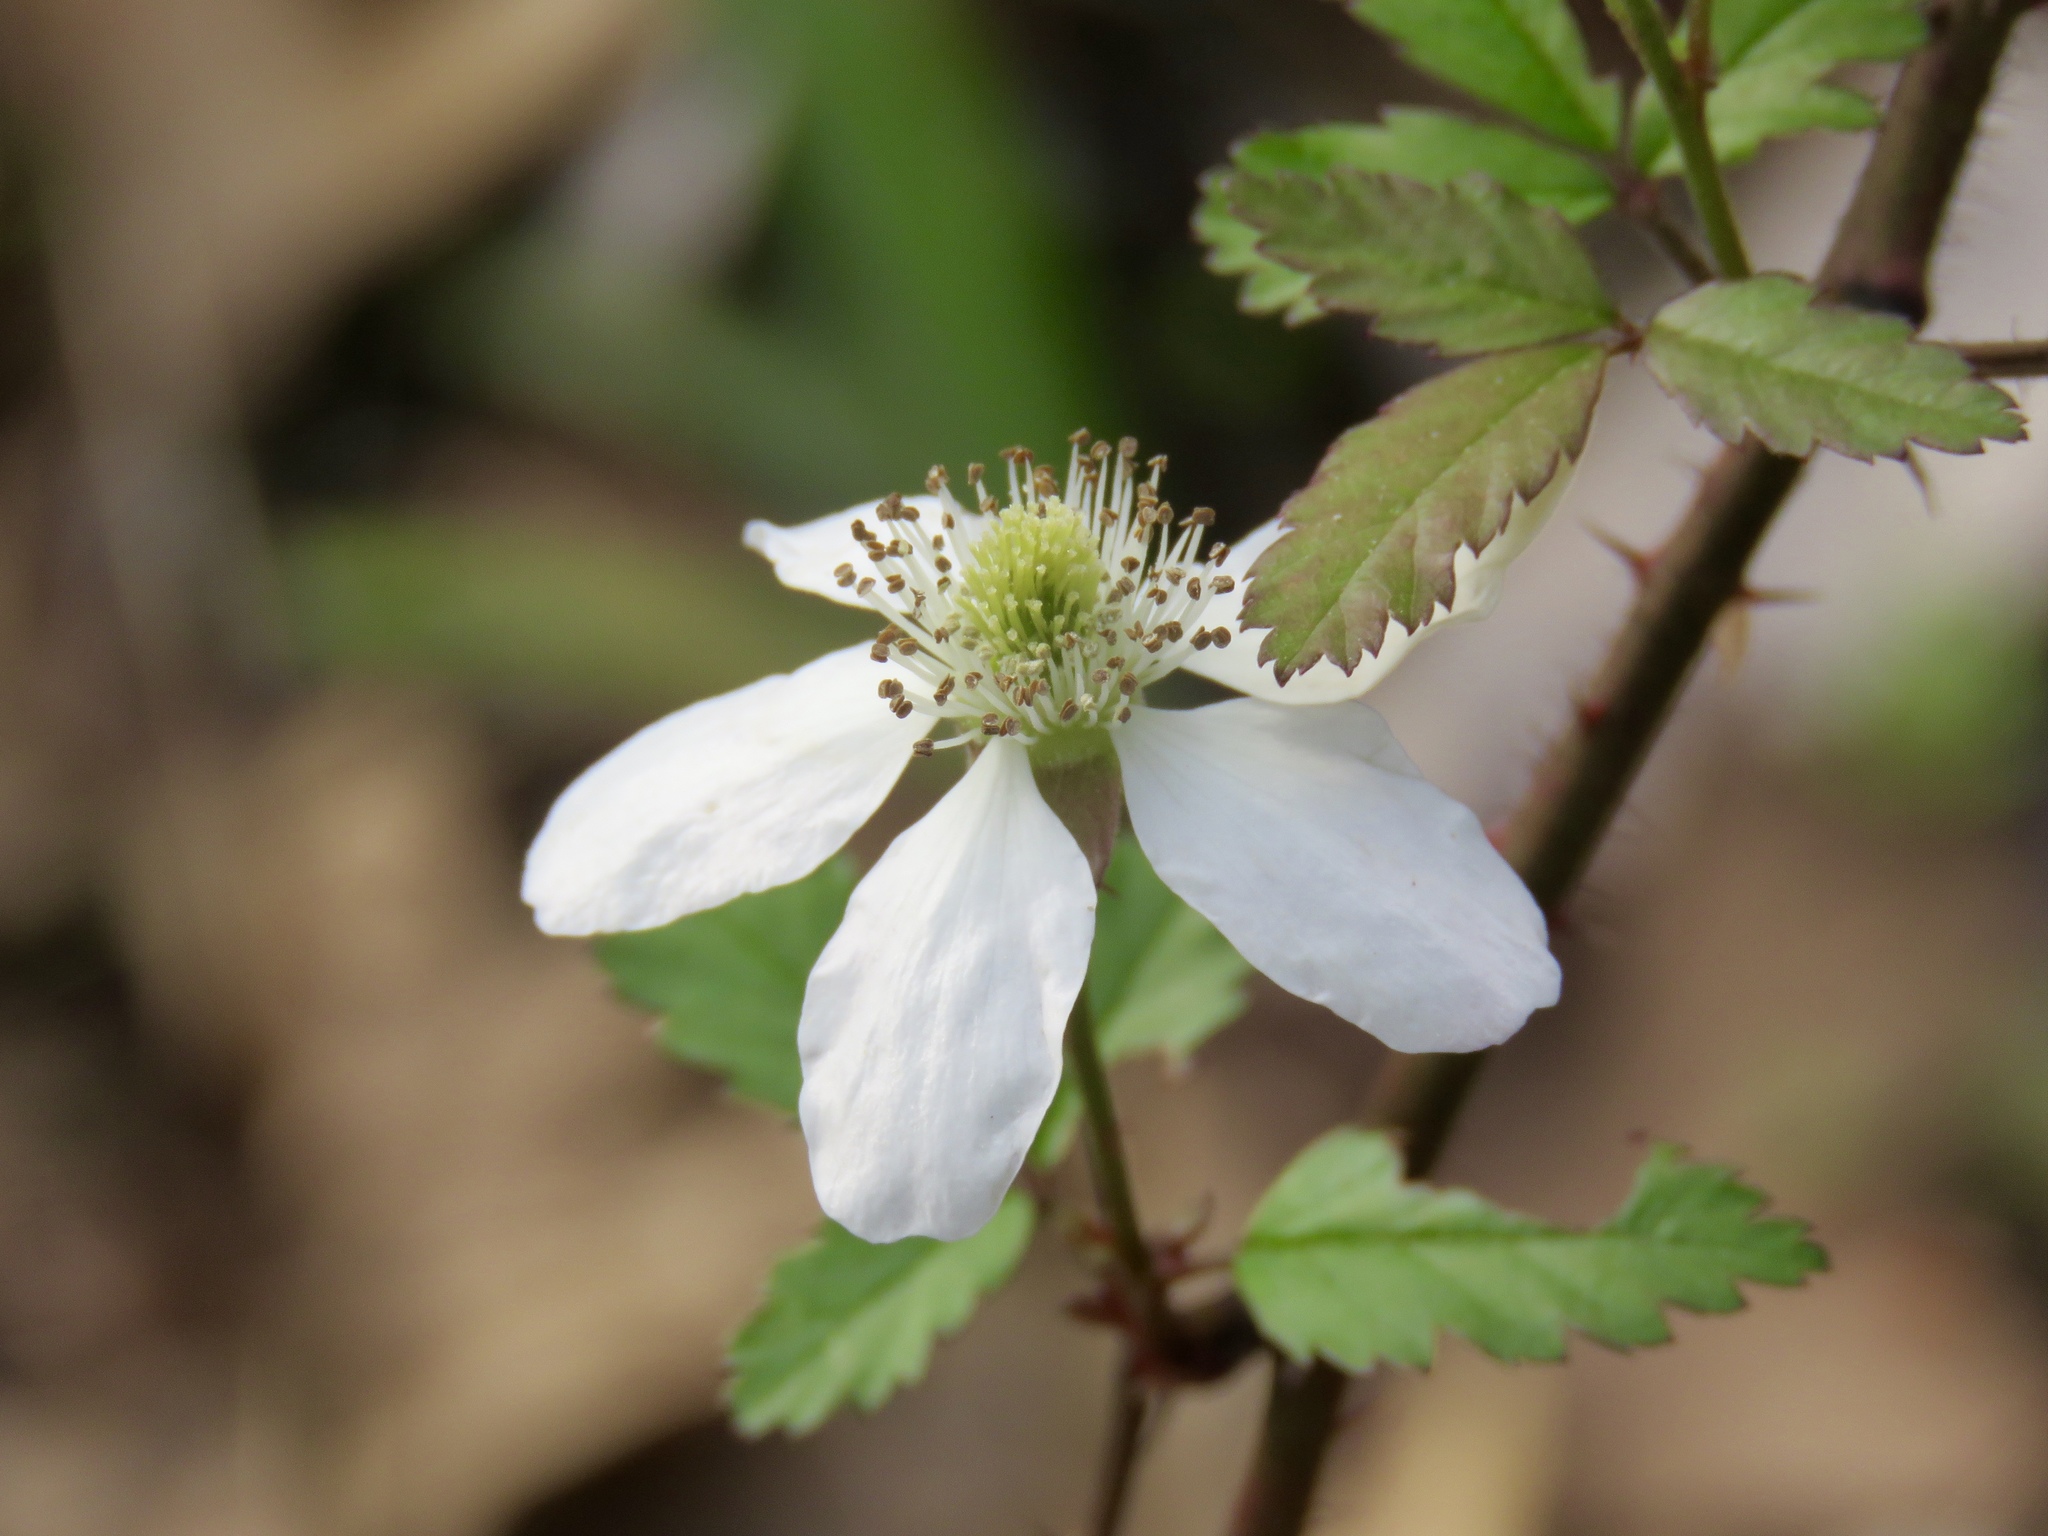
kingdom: Plantae
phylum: Tracheophyta
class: Magnoliopsida
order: Rosales
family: Rosaceae
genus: Rubus
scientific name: Rubus trivialis
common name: Southern dewberry
